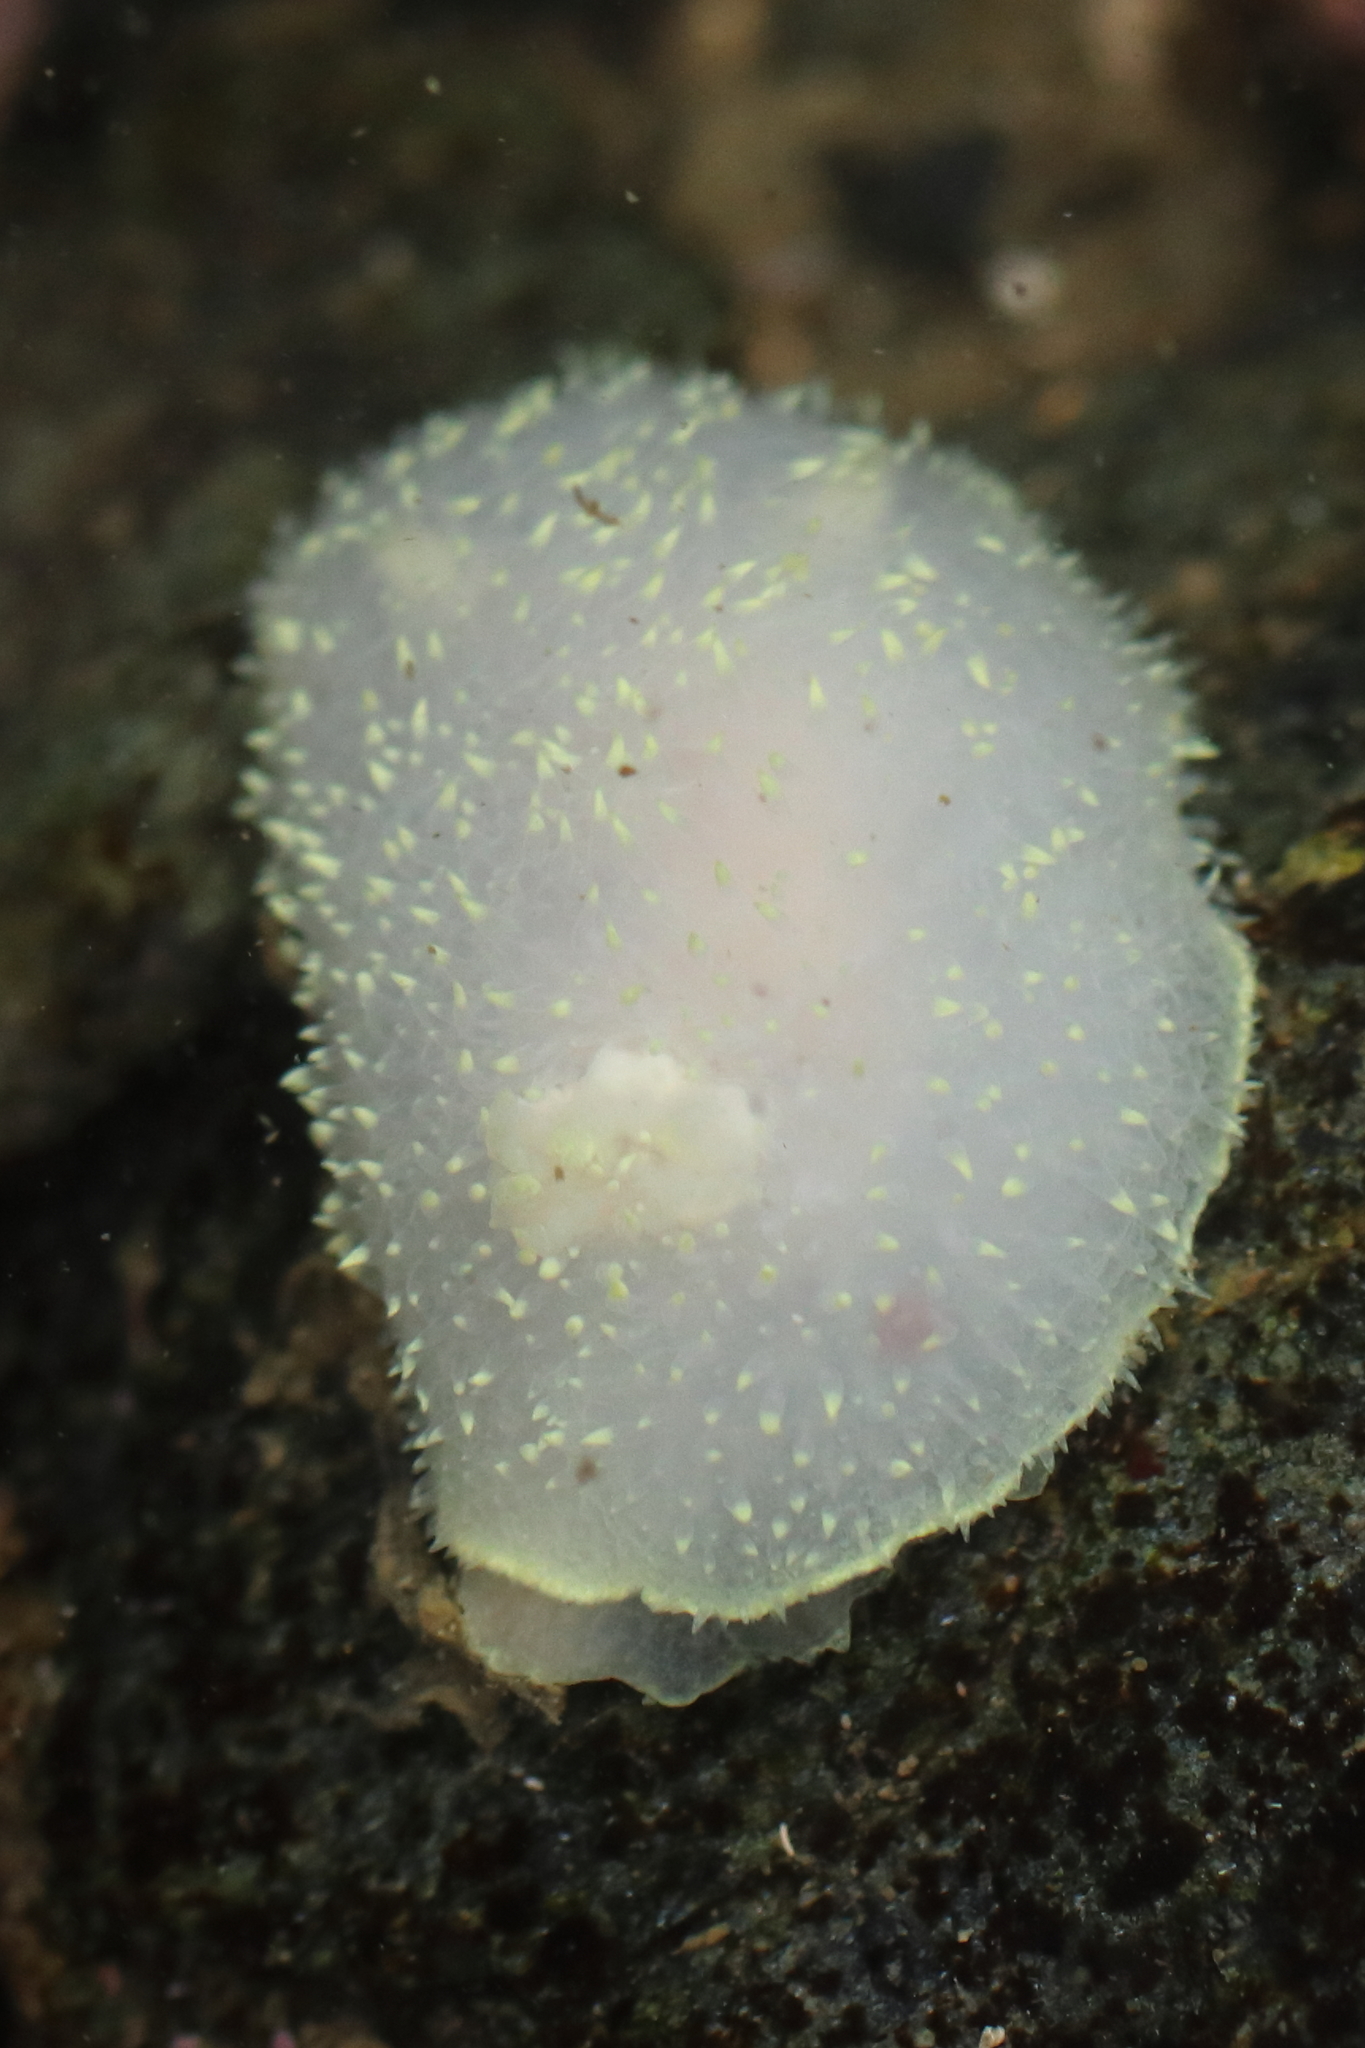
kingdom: Animalia
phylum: Mollusca
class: Gastropoda
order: Nudibranchia
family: Onchidorididae
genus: Acanthodoris
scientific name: Acanthodoris hudsoni
